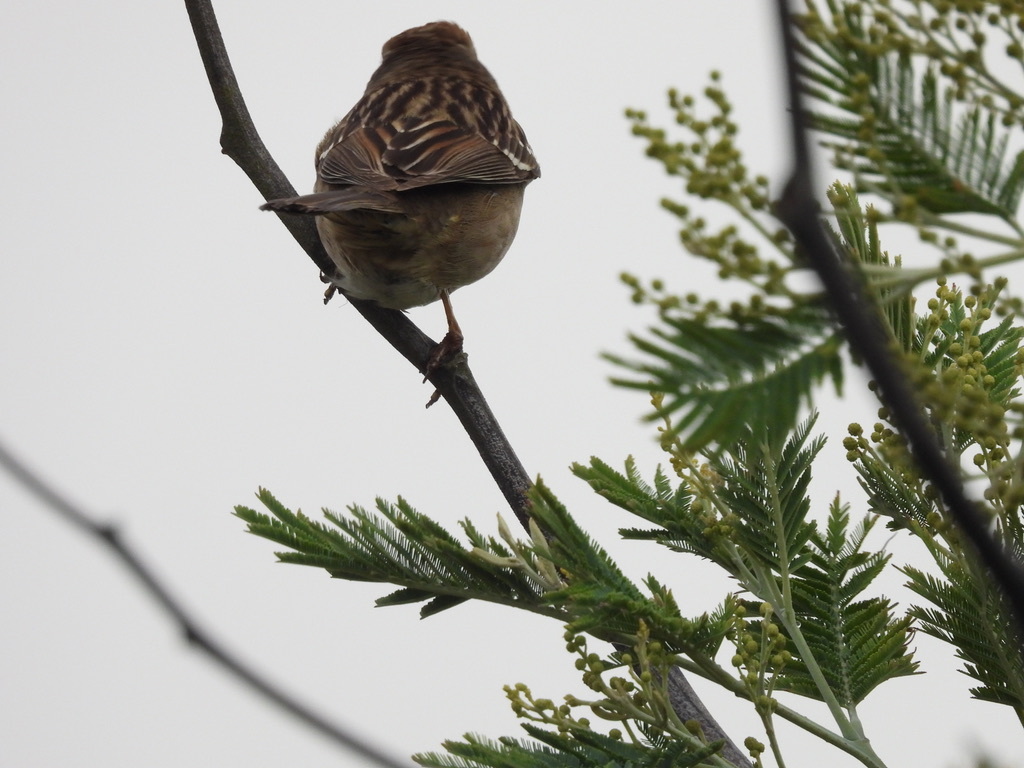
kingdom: Animalia
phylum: Chordata
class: Aves
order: Passeriformes
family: Passerellidae
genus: Zonotrichia
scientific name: Zonotrichia leucophrys
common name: White-crowned sparrow
